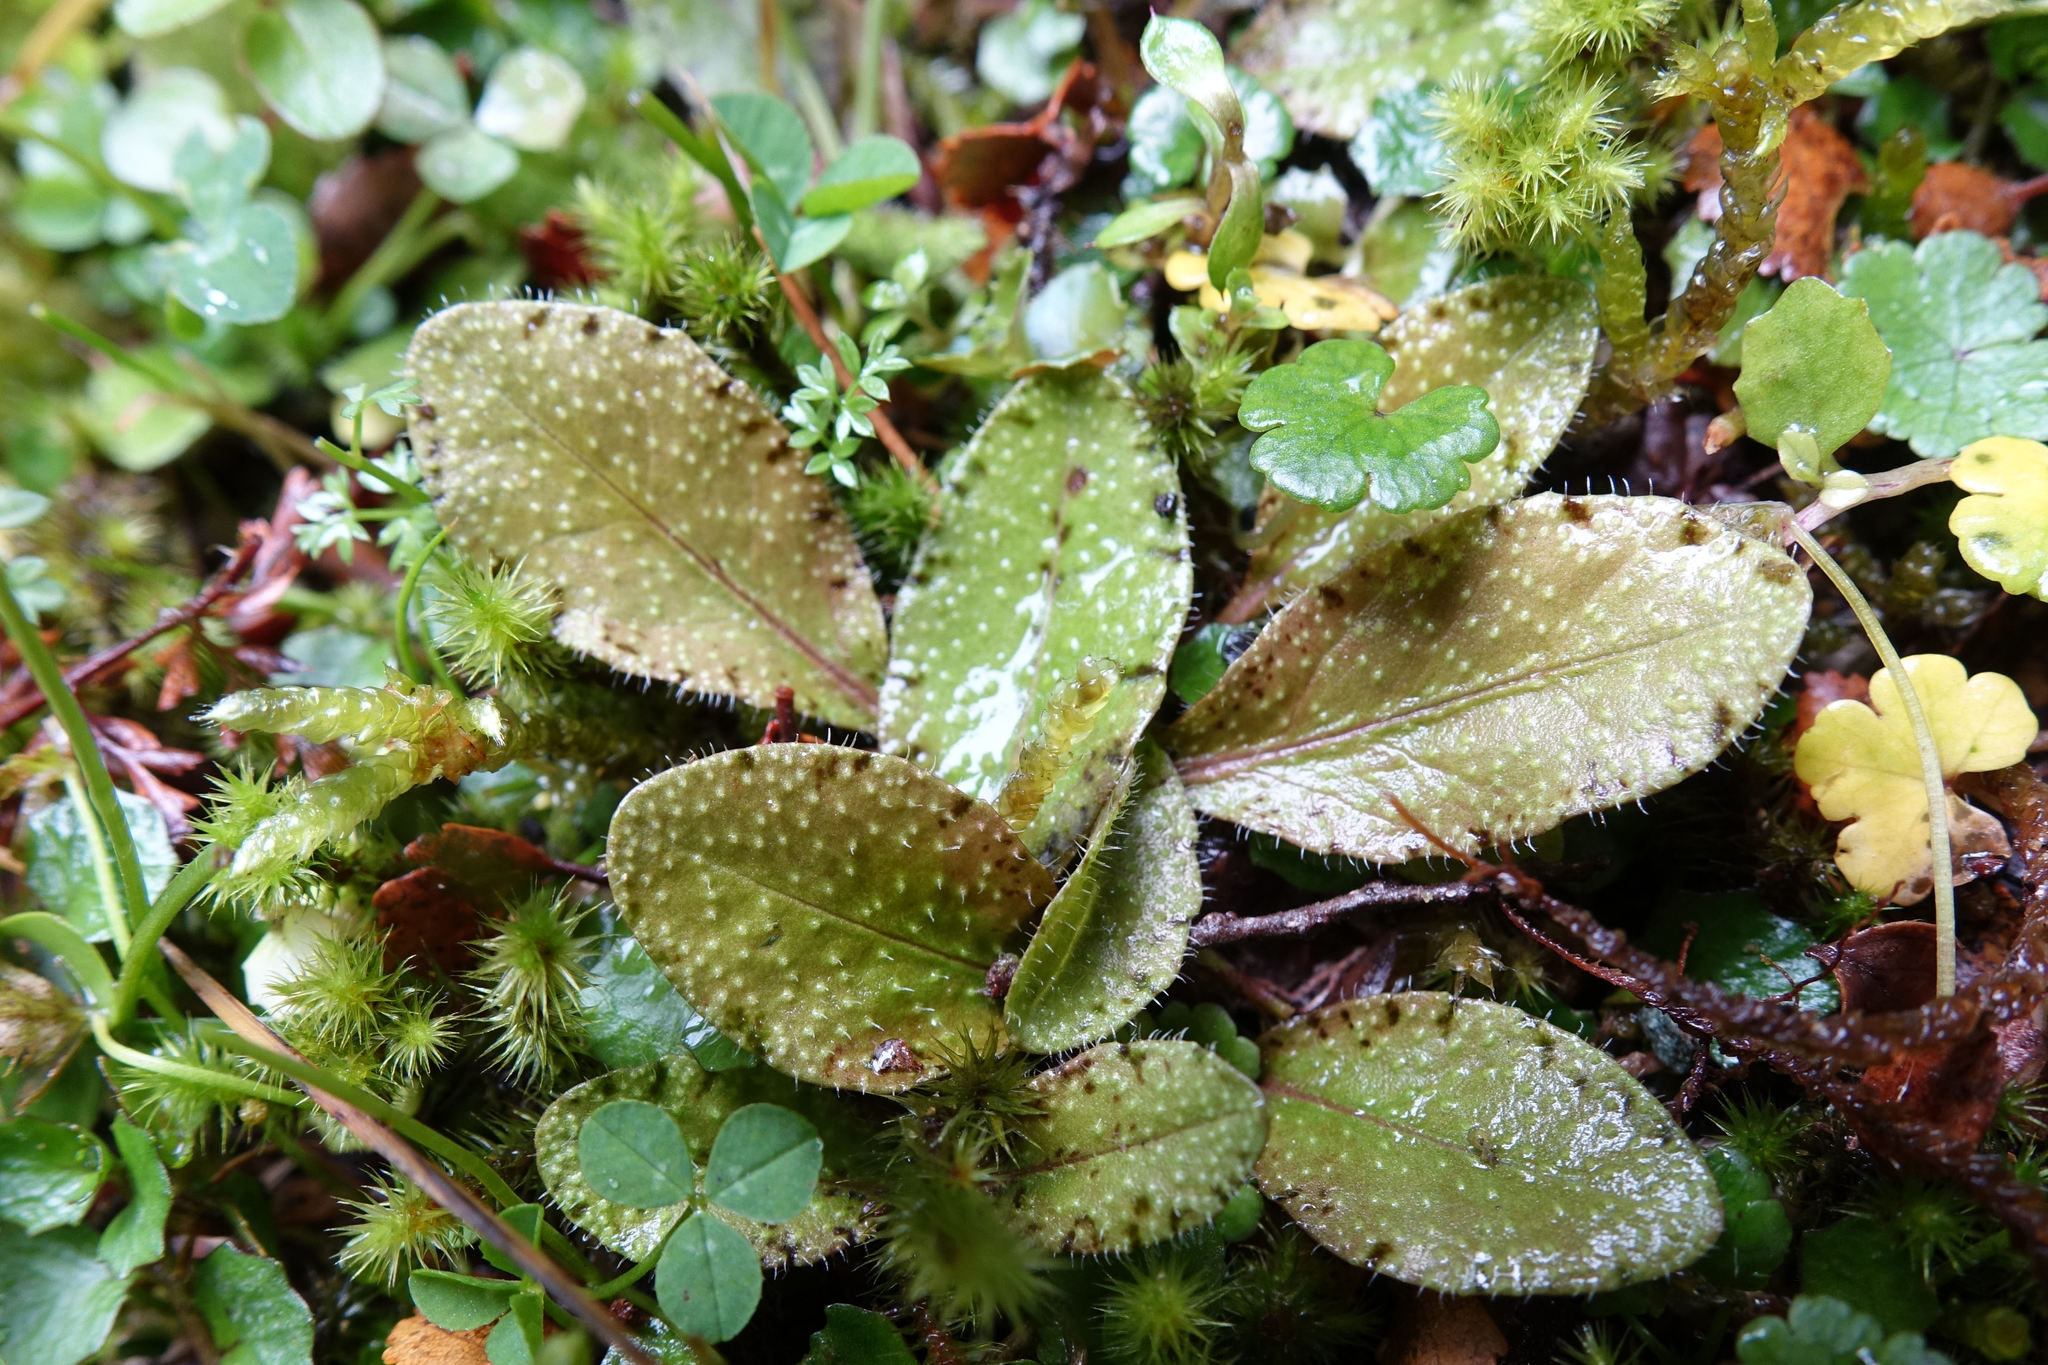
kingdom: Plantae
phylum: Tracheophyta
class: Magnoliopsida
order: Lamiales
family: Mazaceae
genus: Mazus
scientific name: Mazus radicans
